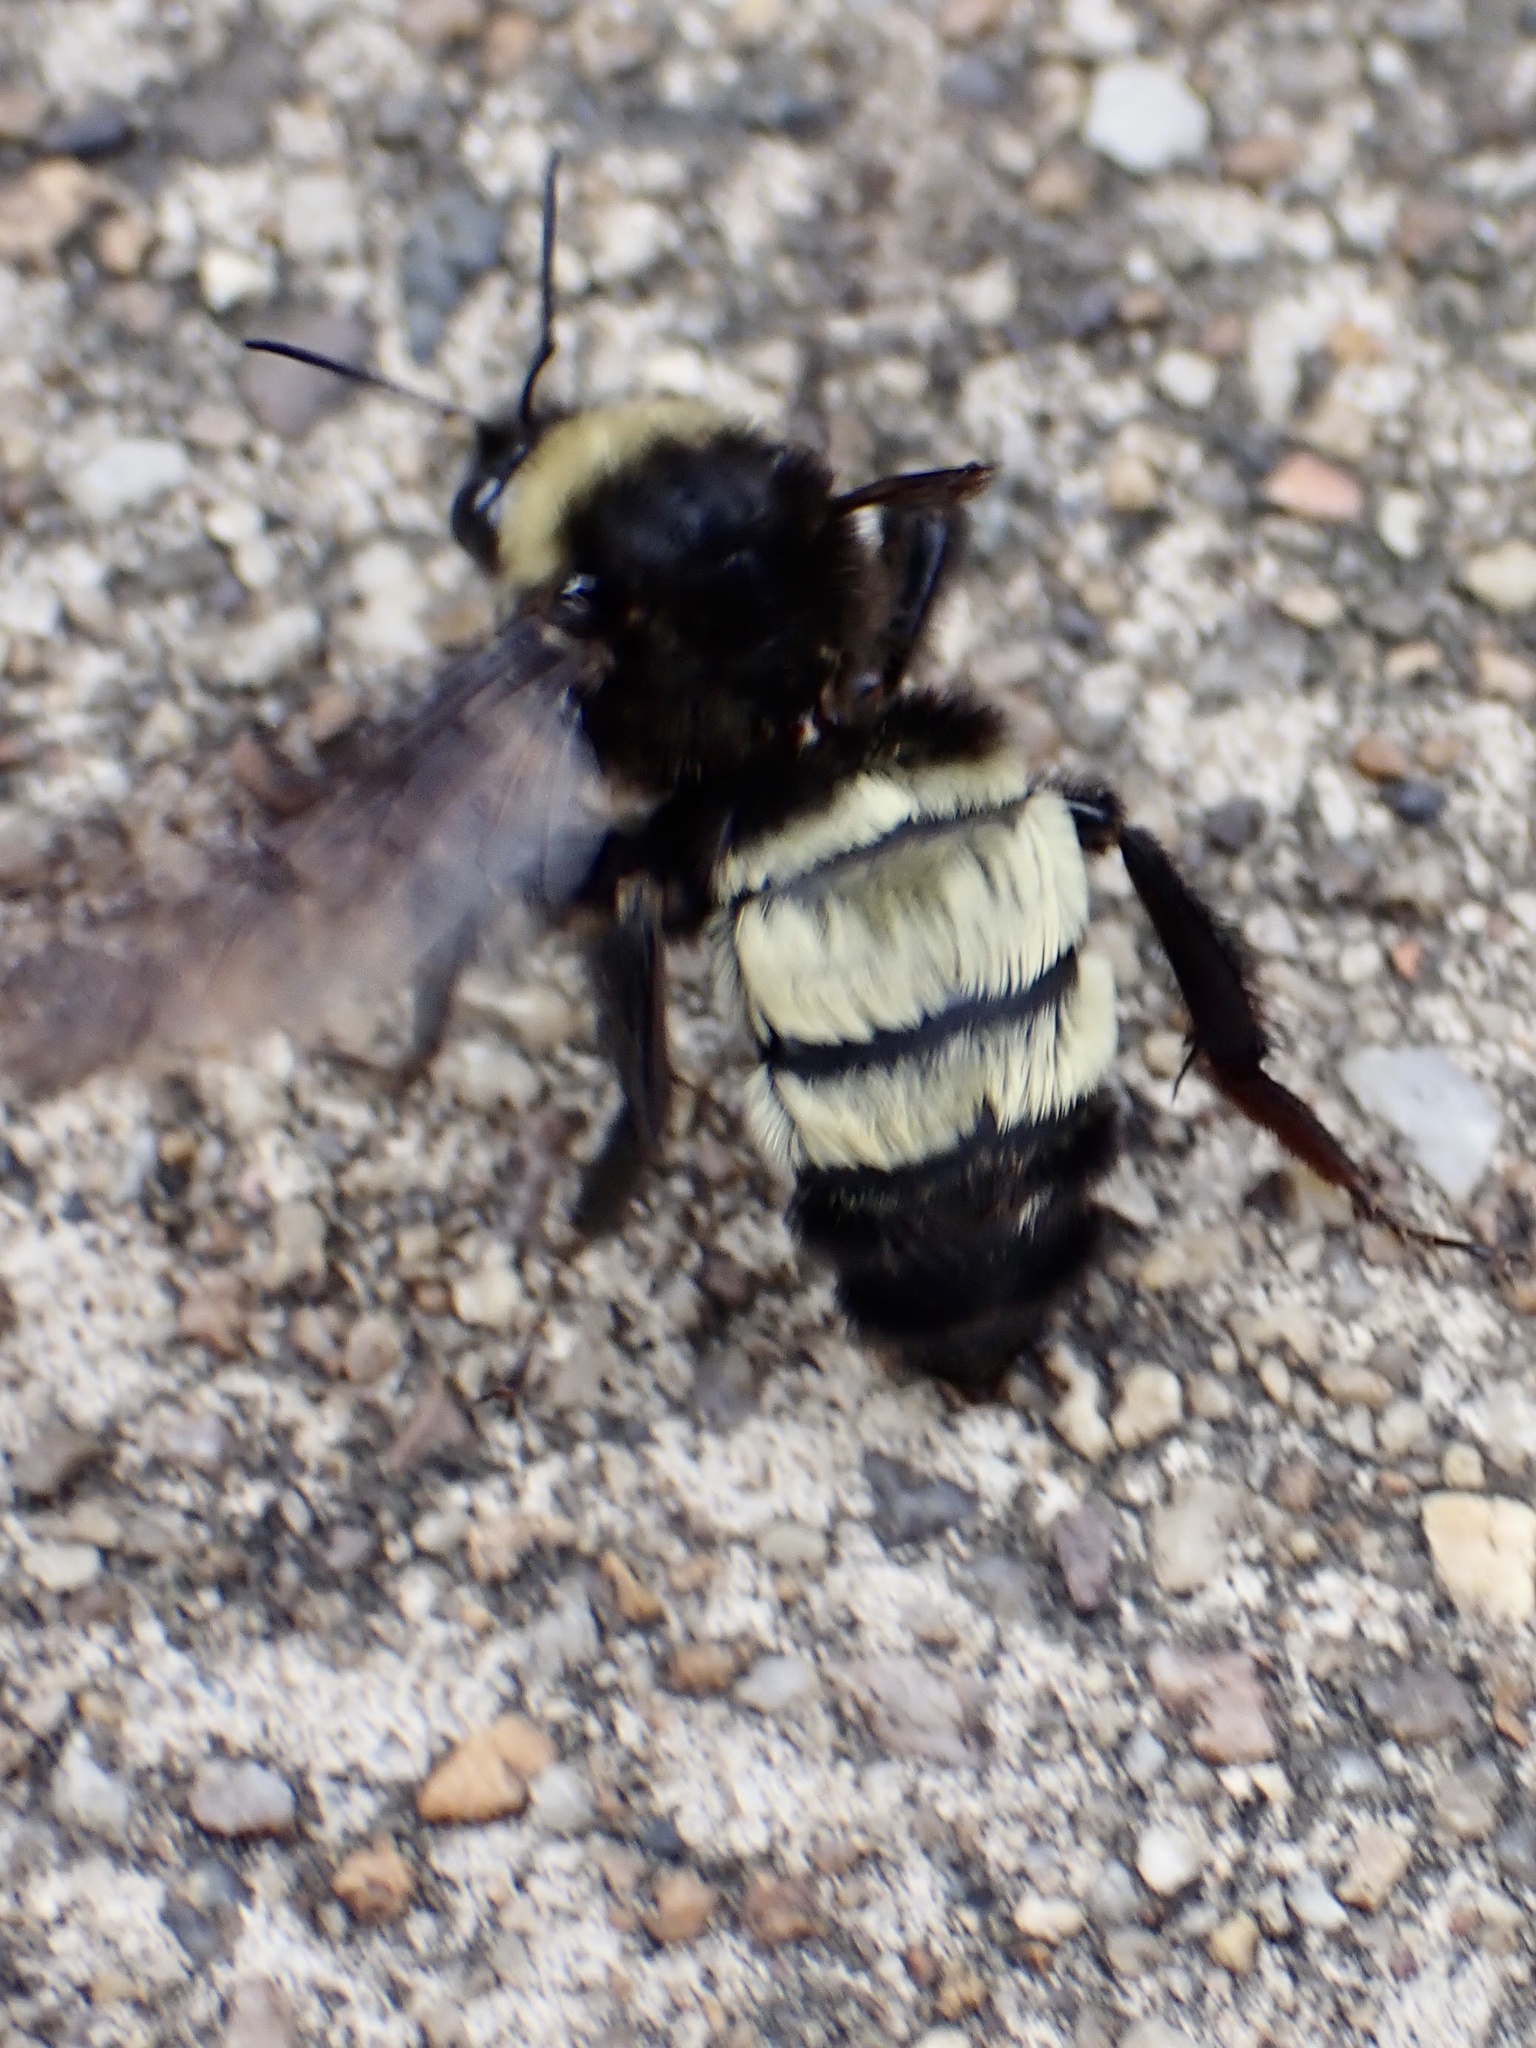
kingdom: Animalia
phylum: Arthropoda
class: Insecta
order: Hymenoptera
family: Apidae
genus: Bombus
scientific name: Bombus pensylvanicus
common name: Bumble bee
